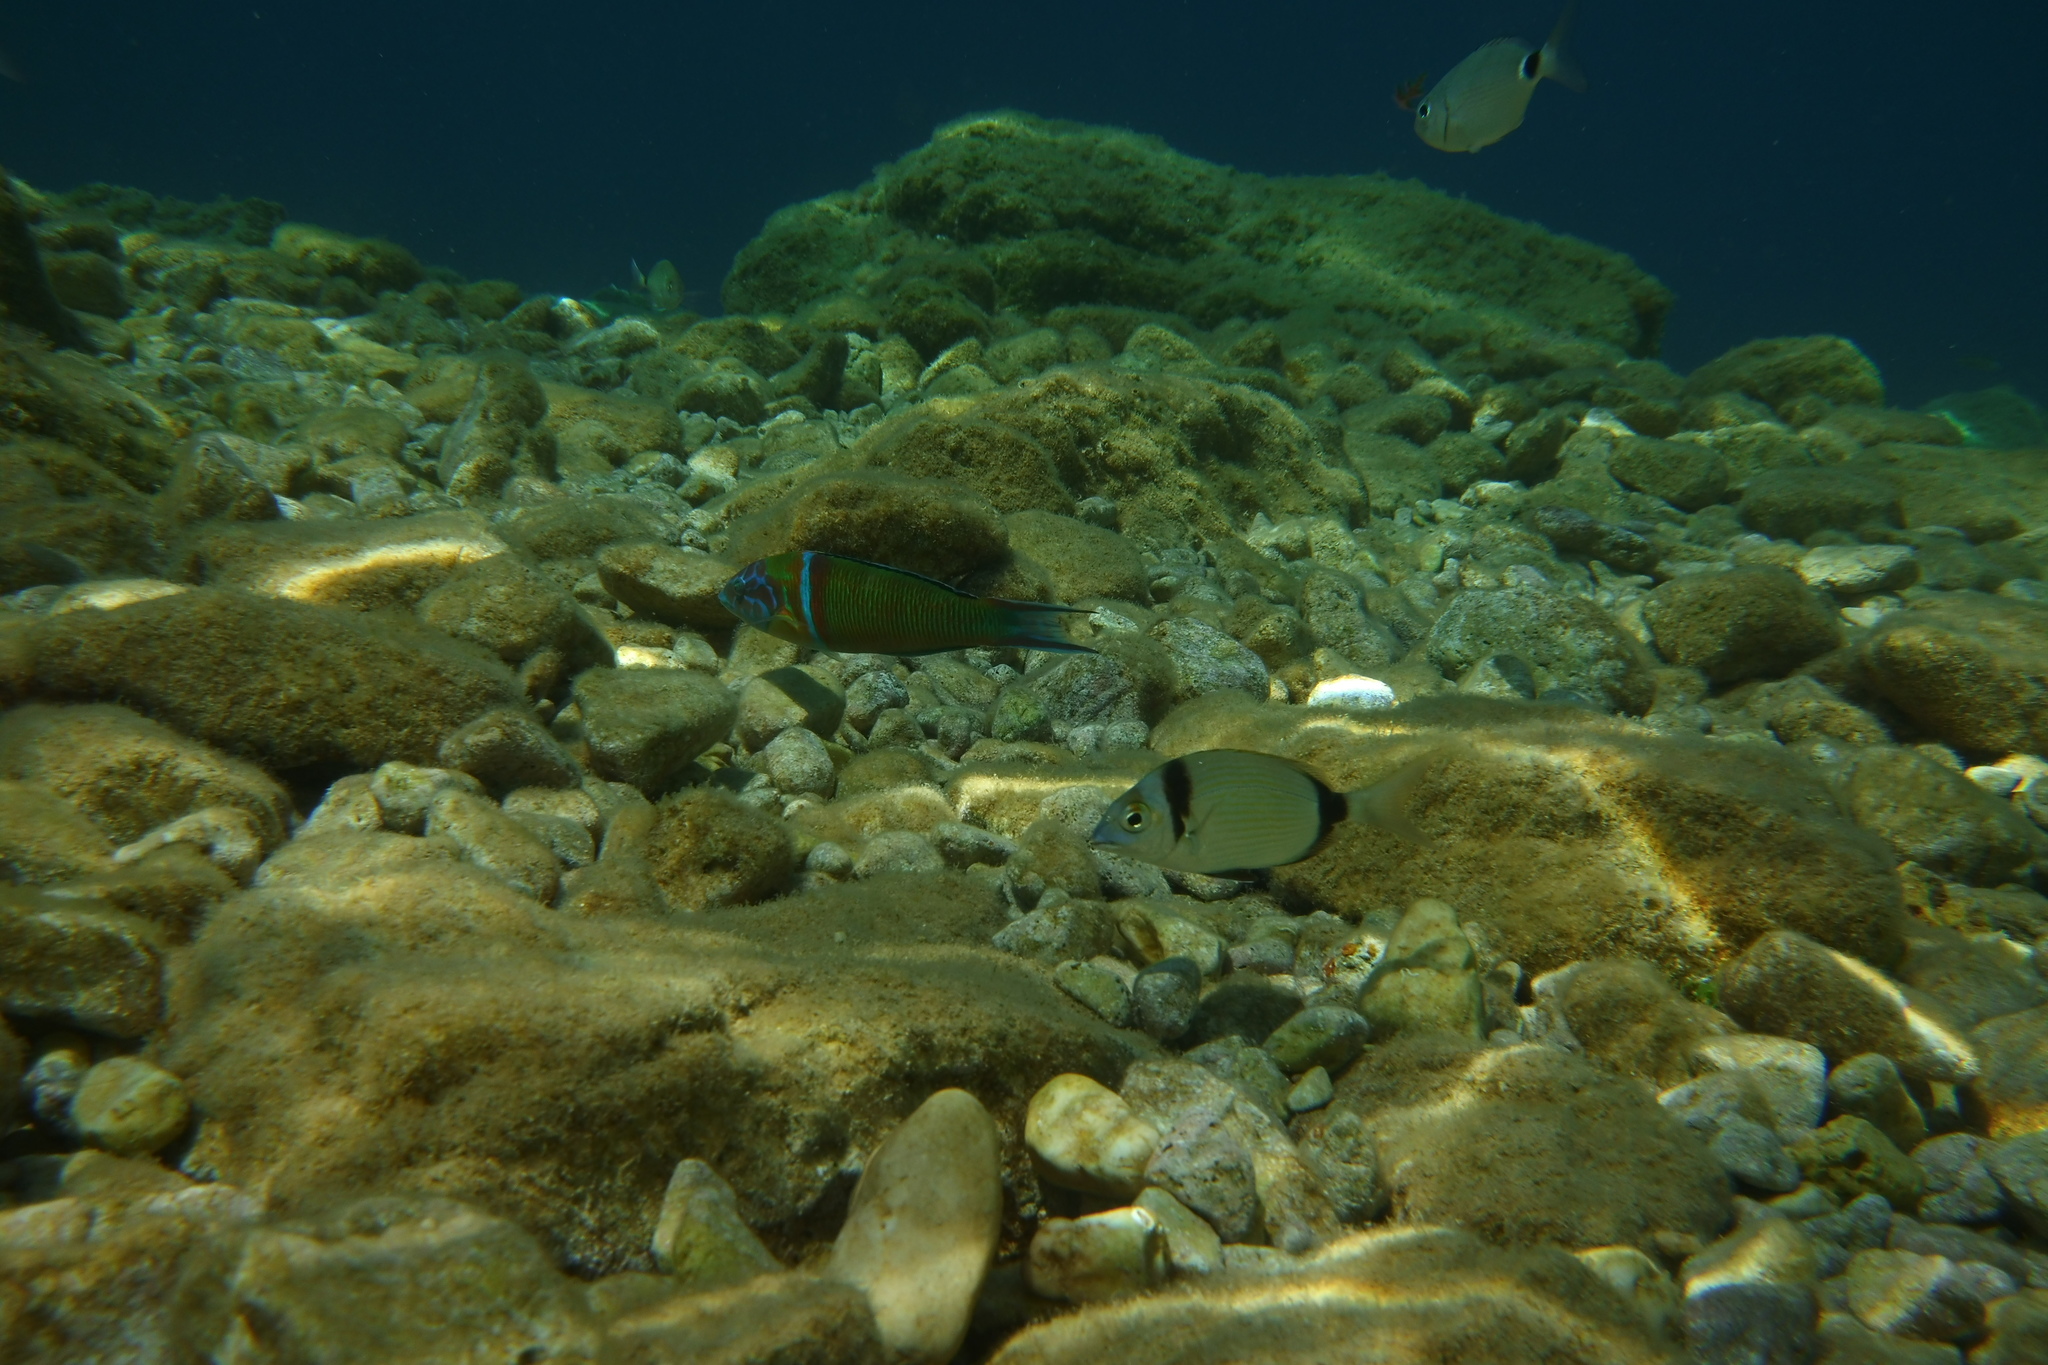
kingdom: Animalia
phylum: Chordata
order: Perciformes
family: Sparidae
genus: Diplodus
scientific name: Diplodus vulgaris
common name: Common two-banded seabream
